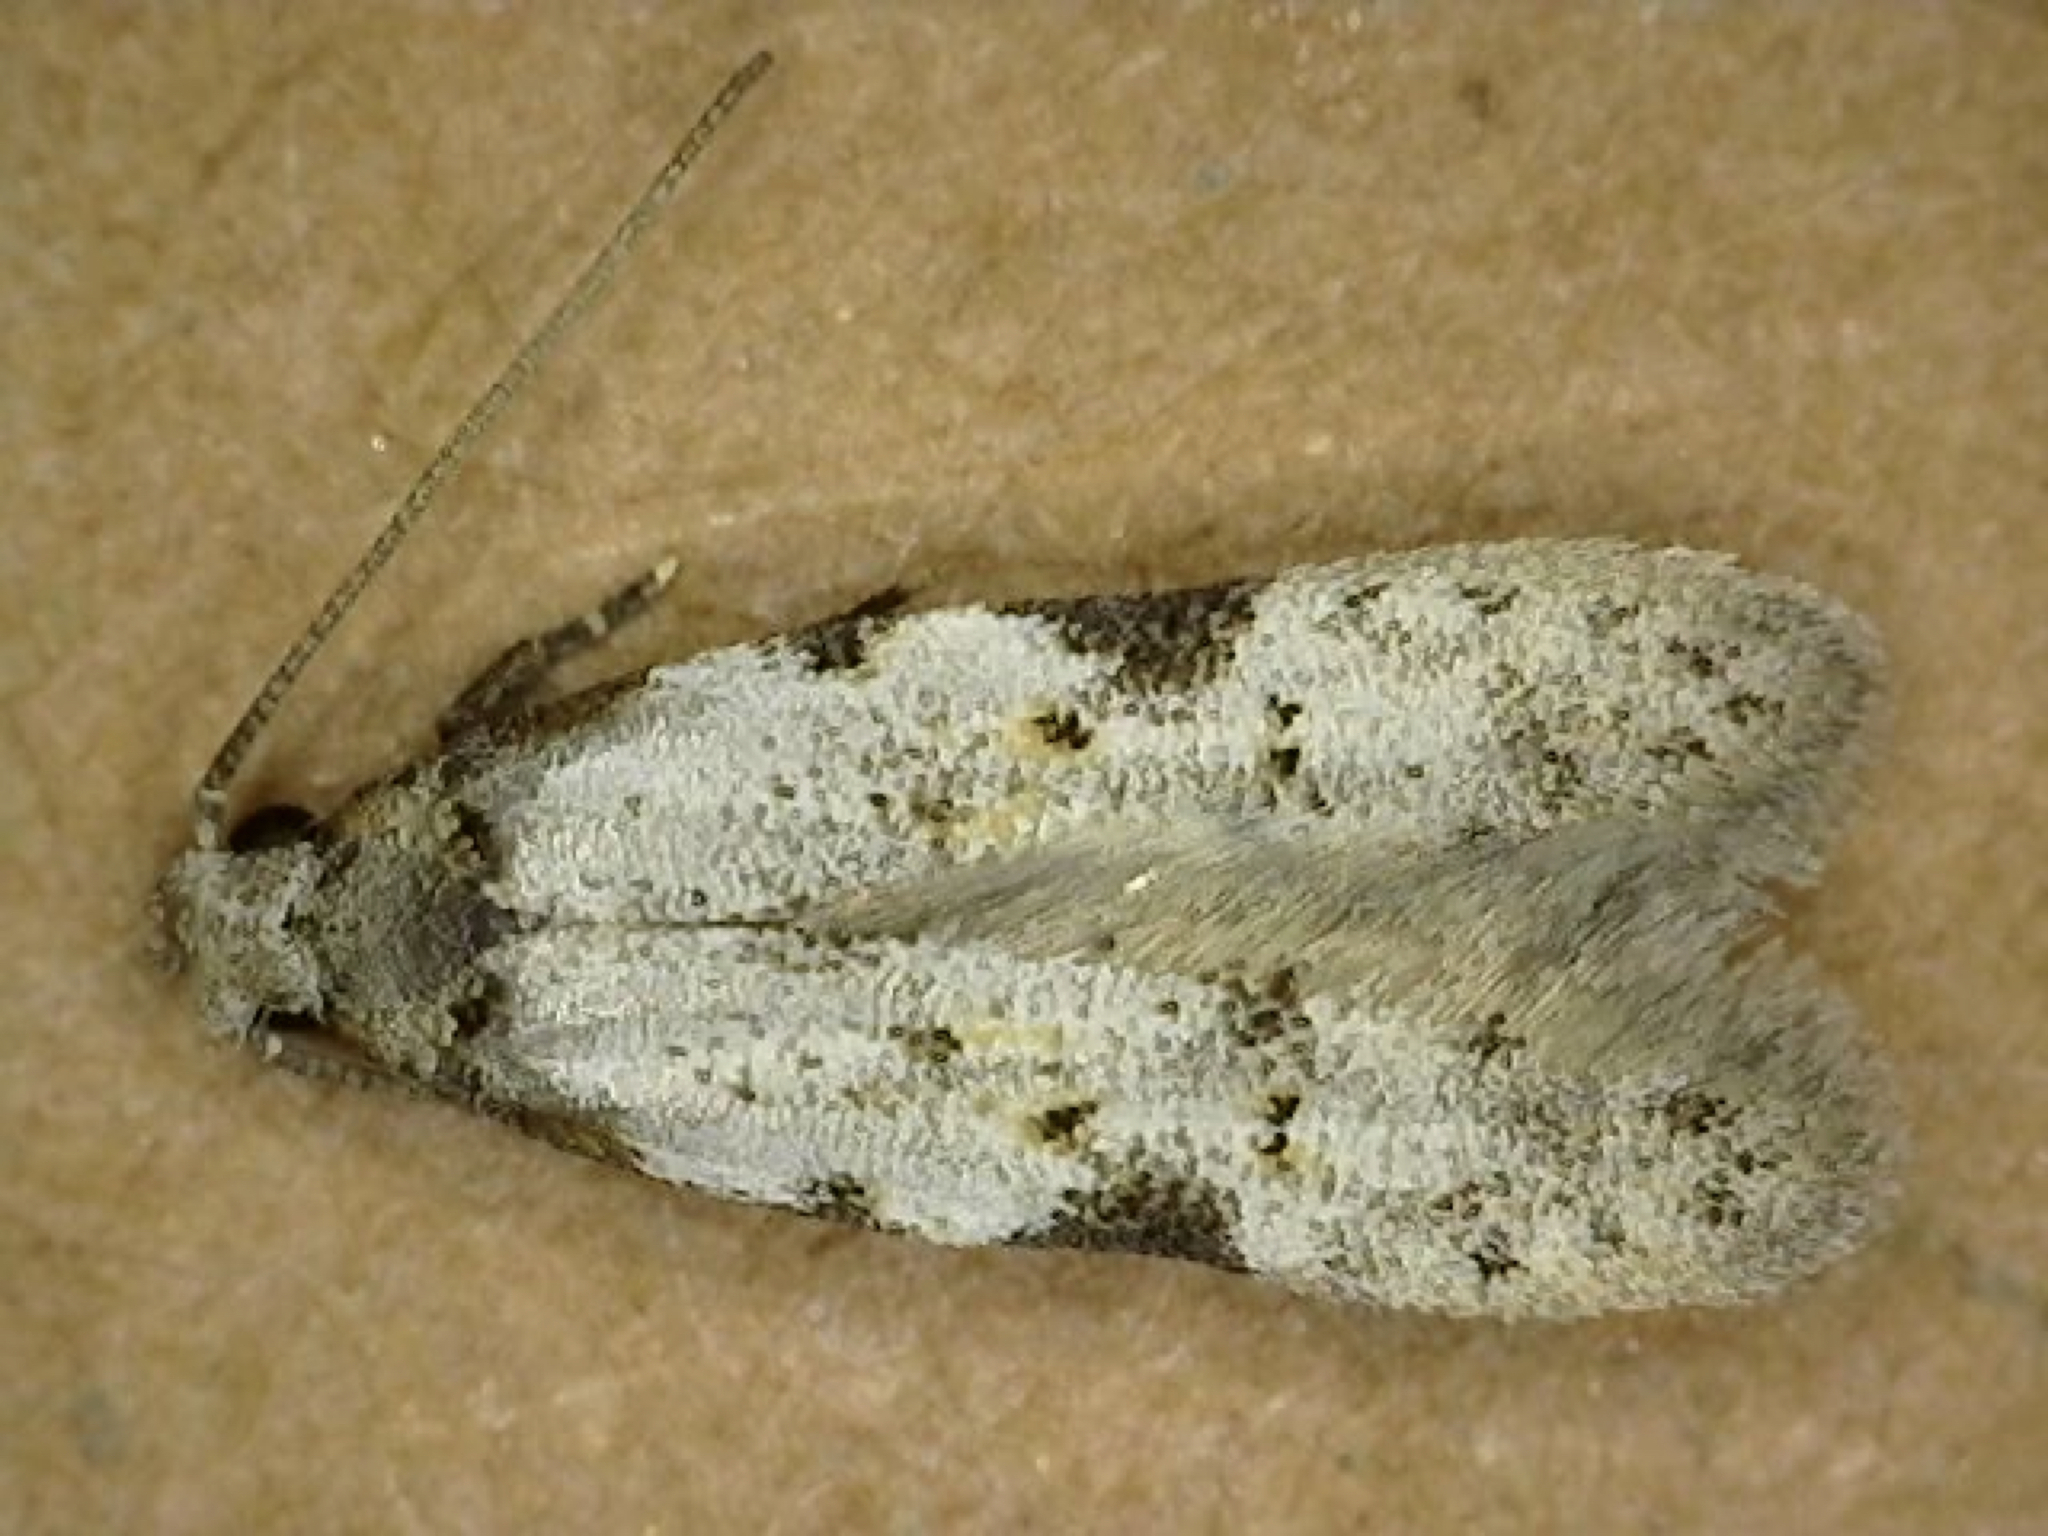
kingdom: Animalia
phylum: Arthropoda
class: Insecta
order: Lepidoptera
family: Autostichidae
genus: Taygete
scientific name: Taygete attributella
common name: Triangle-marked twirler moth
